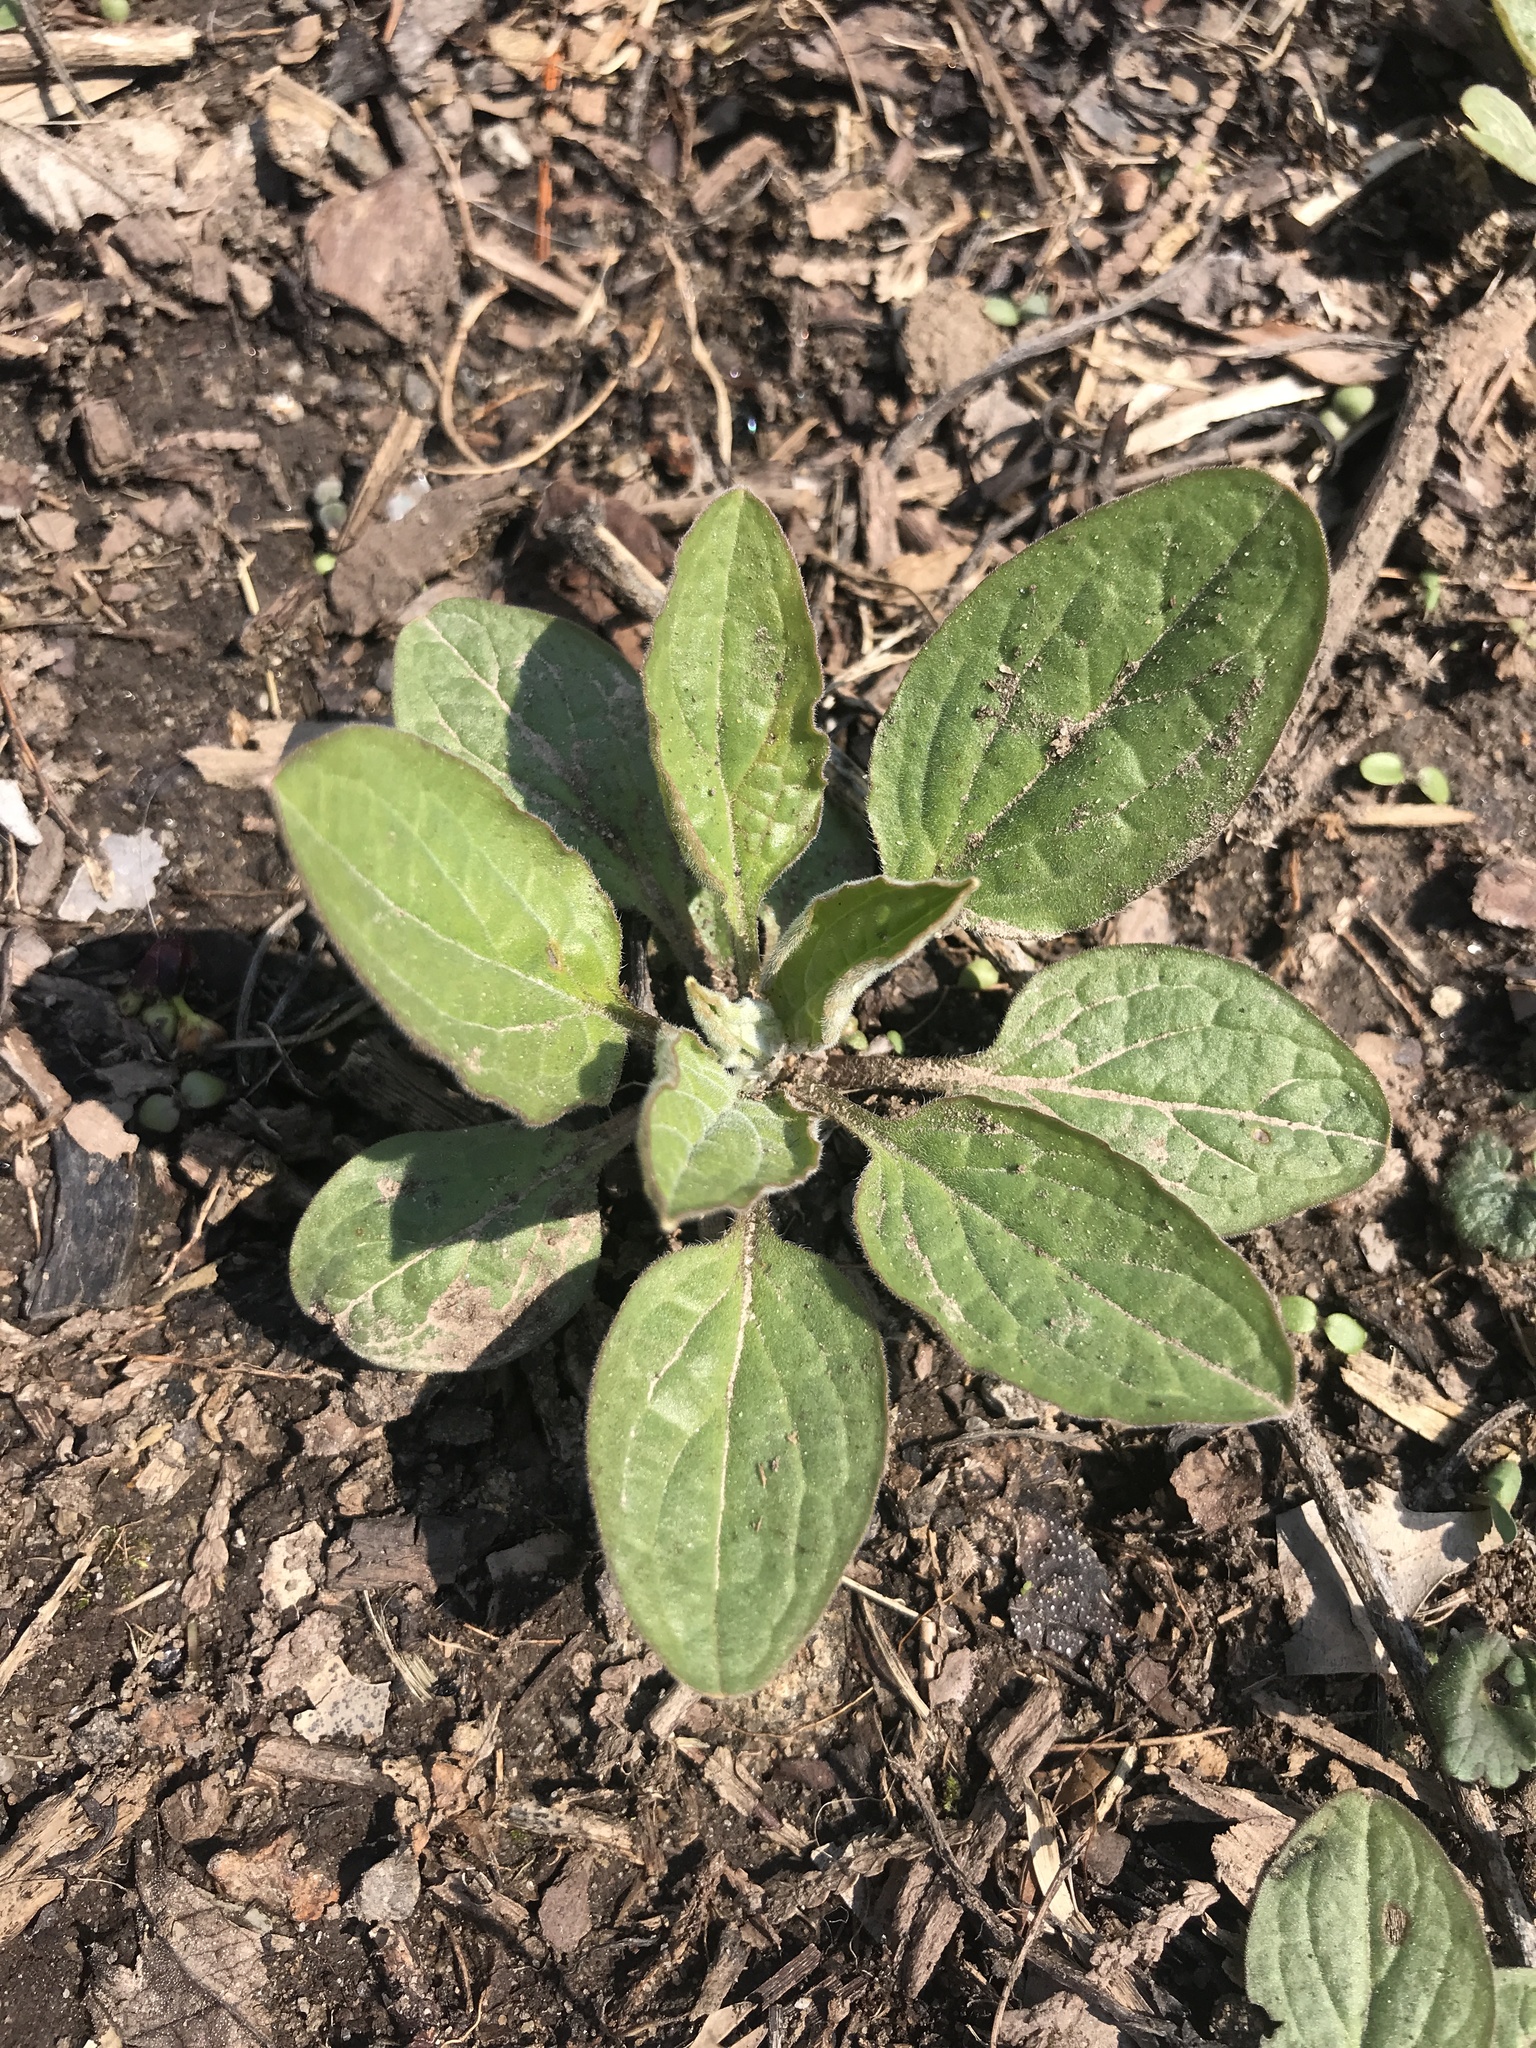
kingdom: Plantae
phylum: Tracheophyta
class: Magnoliopsida
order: Boraginales
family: Boraginaceae
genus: Hackelia
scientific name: Hackelia virginiana
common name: Beggar's-lice
